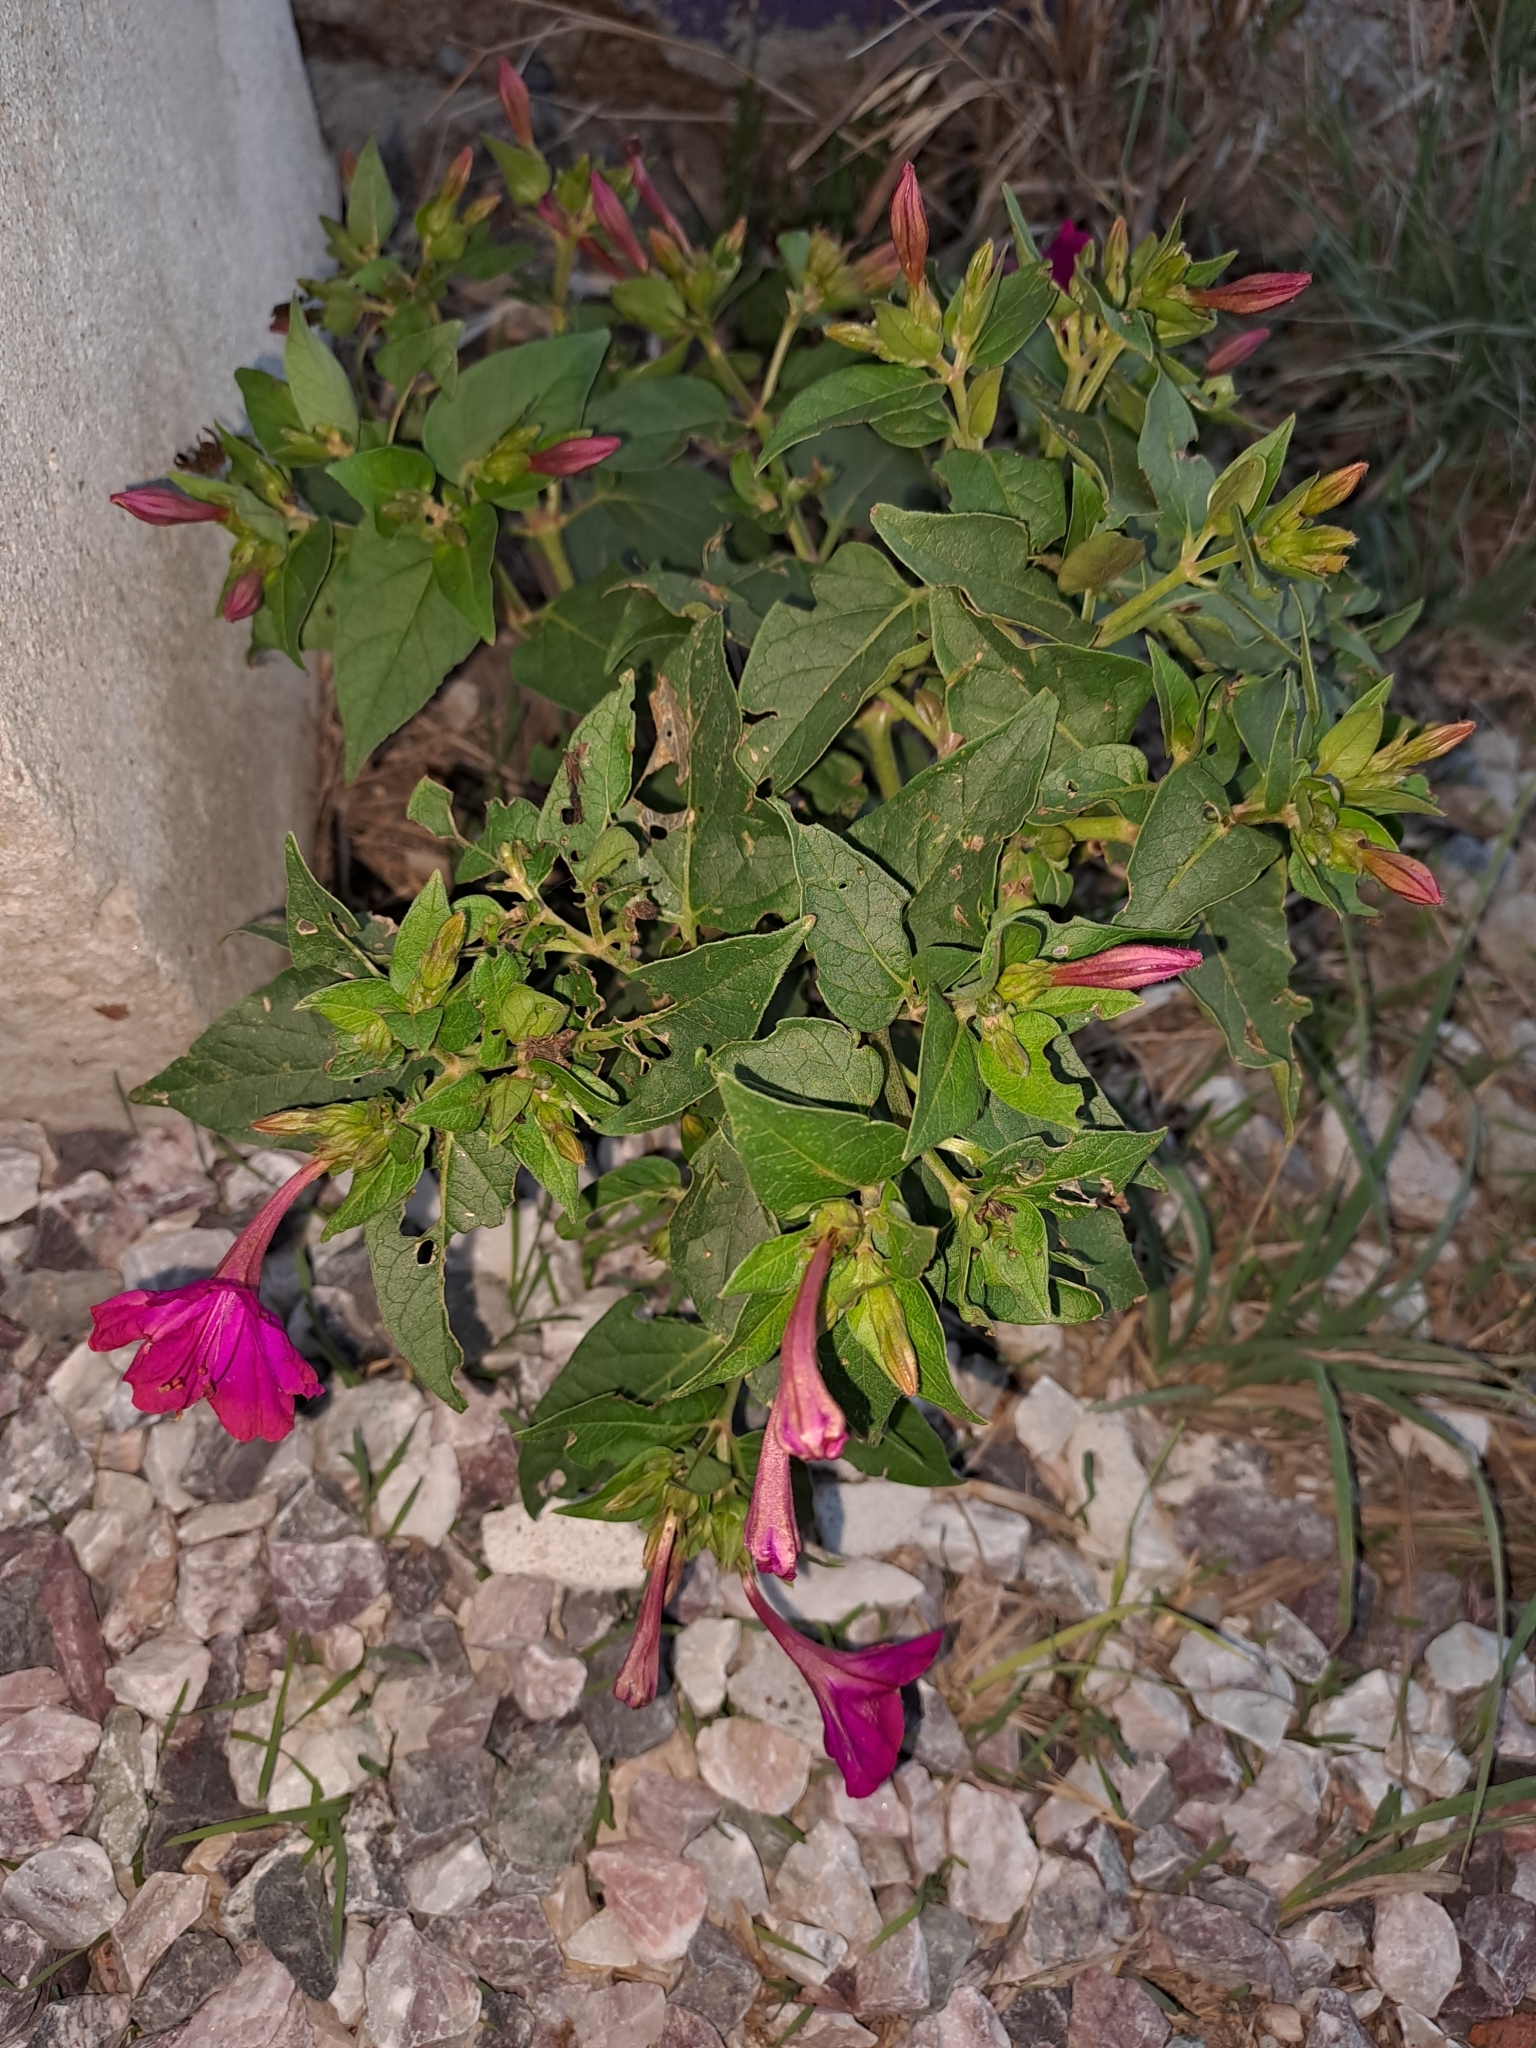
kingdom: Plantae
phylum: Tracheophyta
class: Magnoliopsida
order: Caryophyllales
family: Nyctaginaceae
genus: Mirabilis
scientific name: Mirabilis jalapa
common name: Marvel-of-peru
